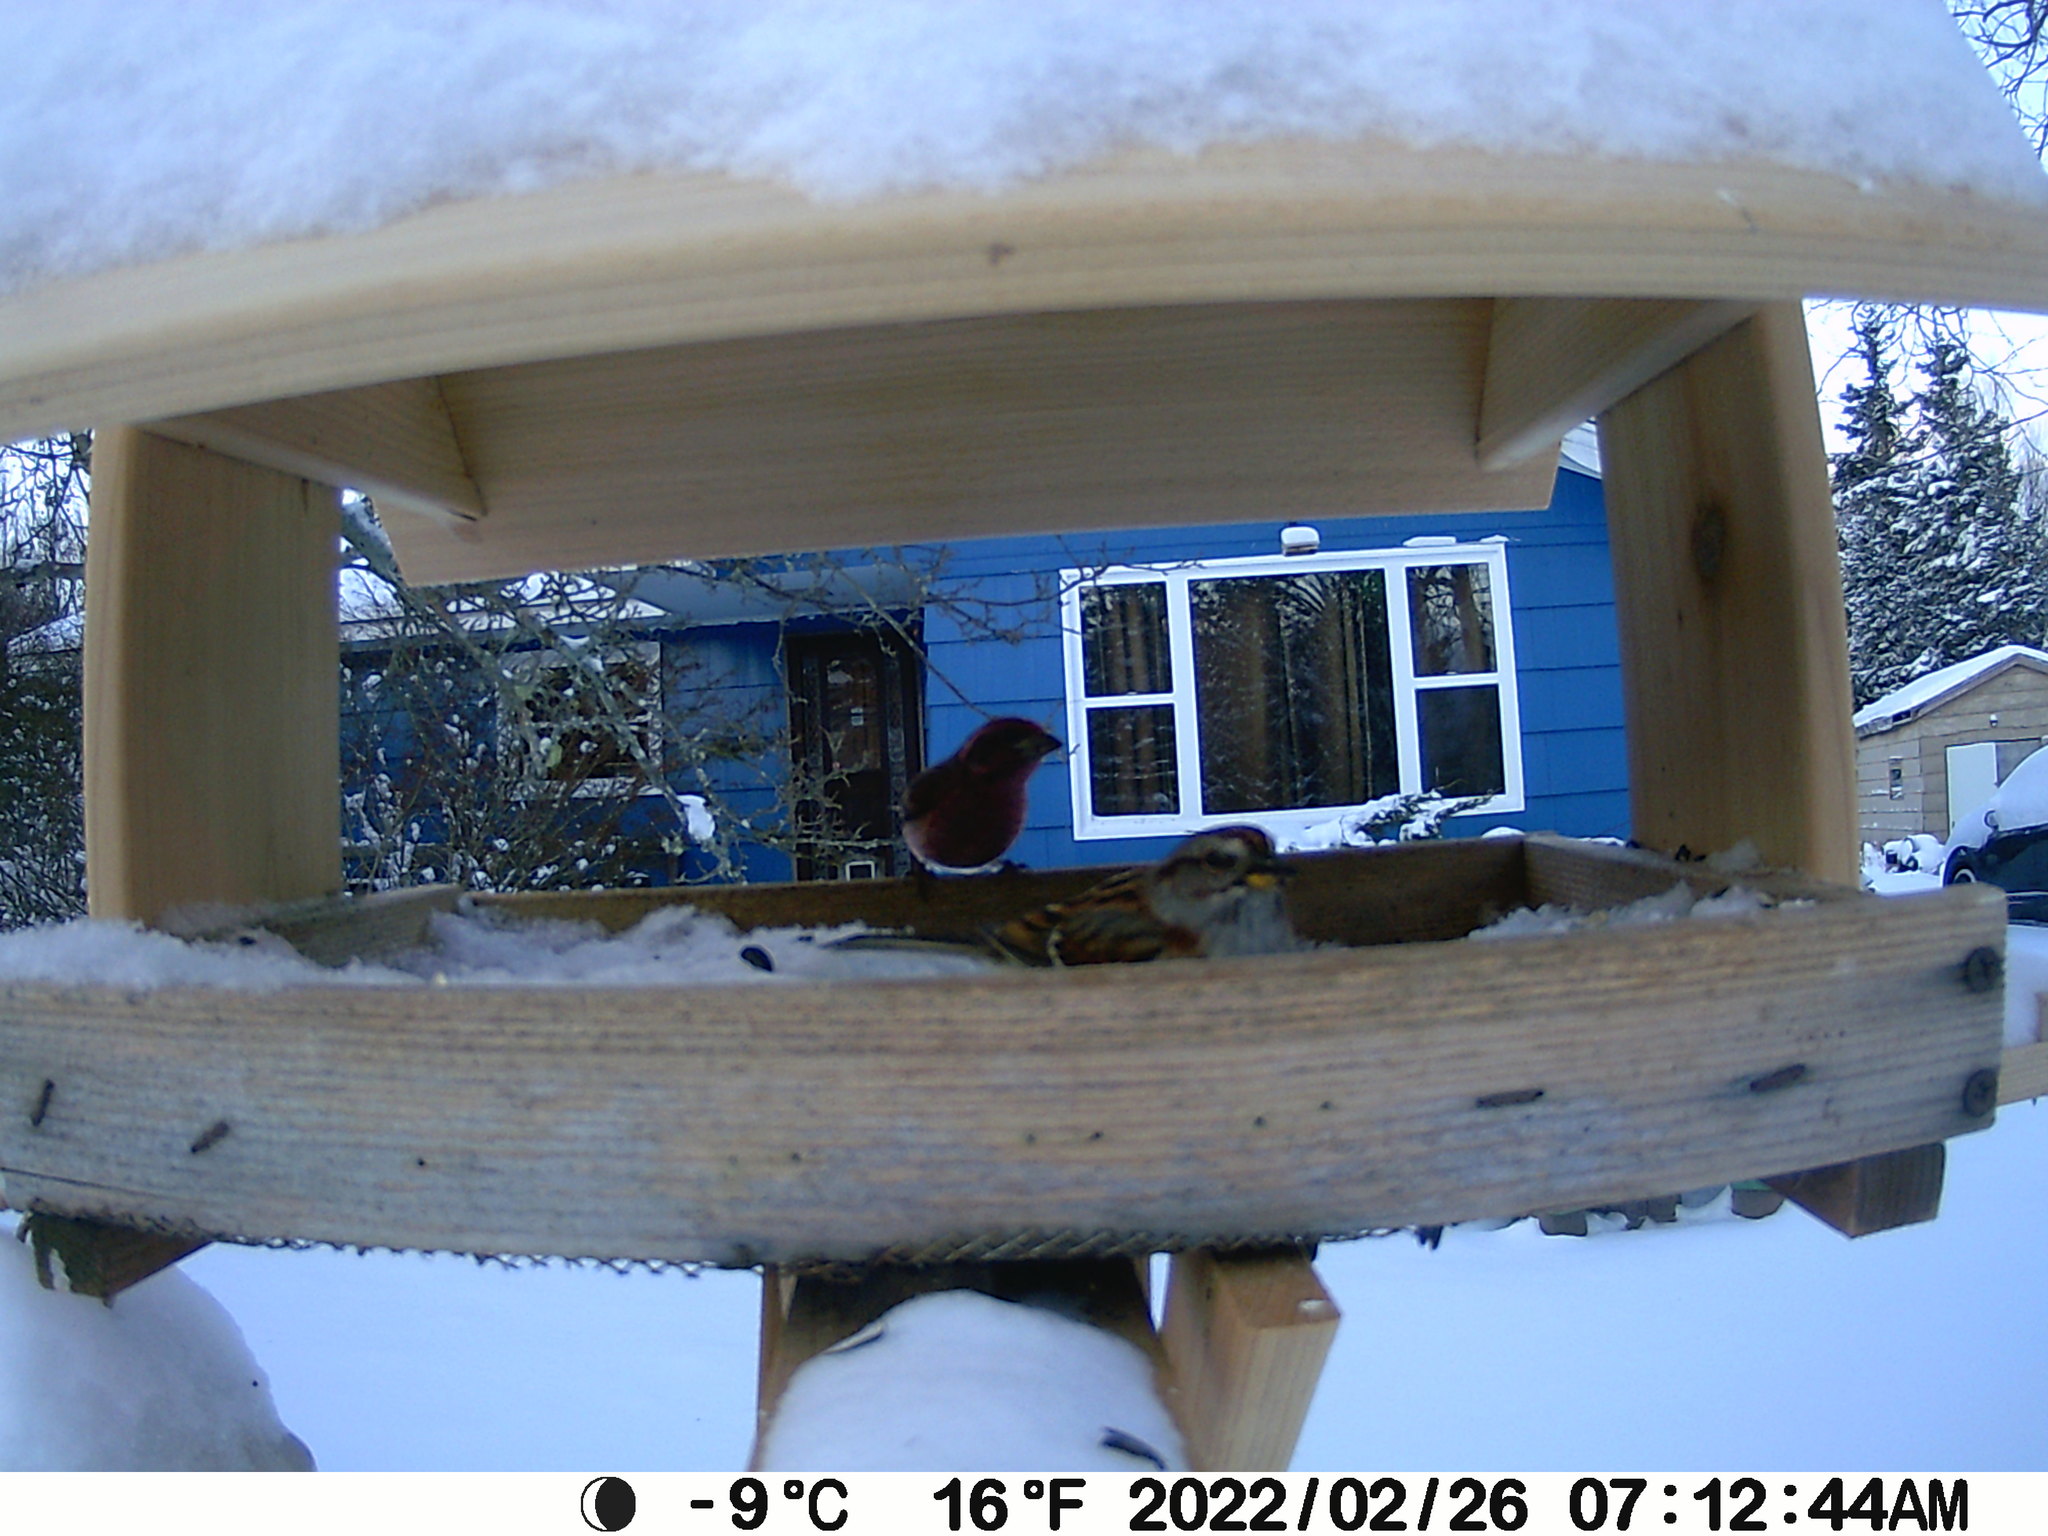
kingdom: Animalia
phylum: Chordata
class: Aves
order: Passeriformes
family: Fringillidae
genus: Haemorhous
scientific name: Haemorhous purpureus
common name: Purple finch
